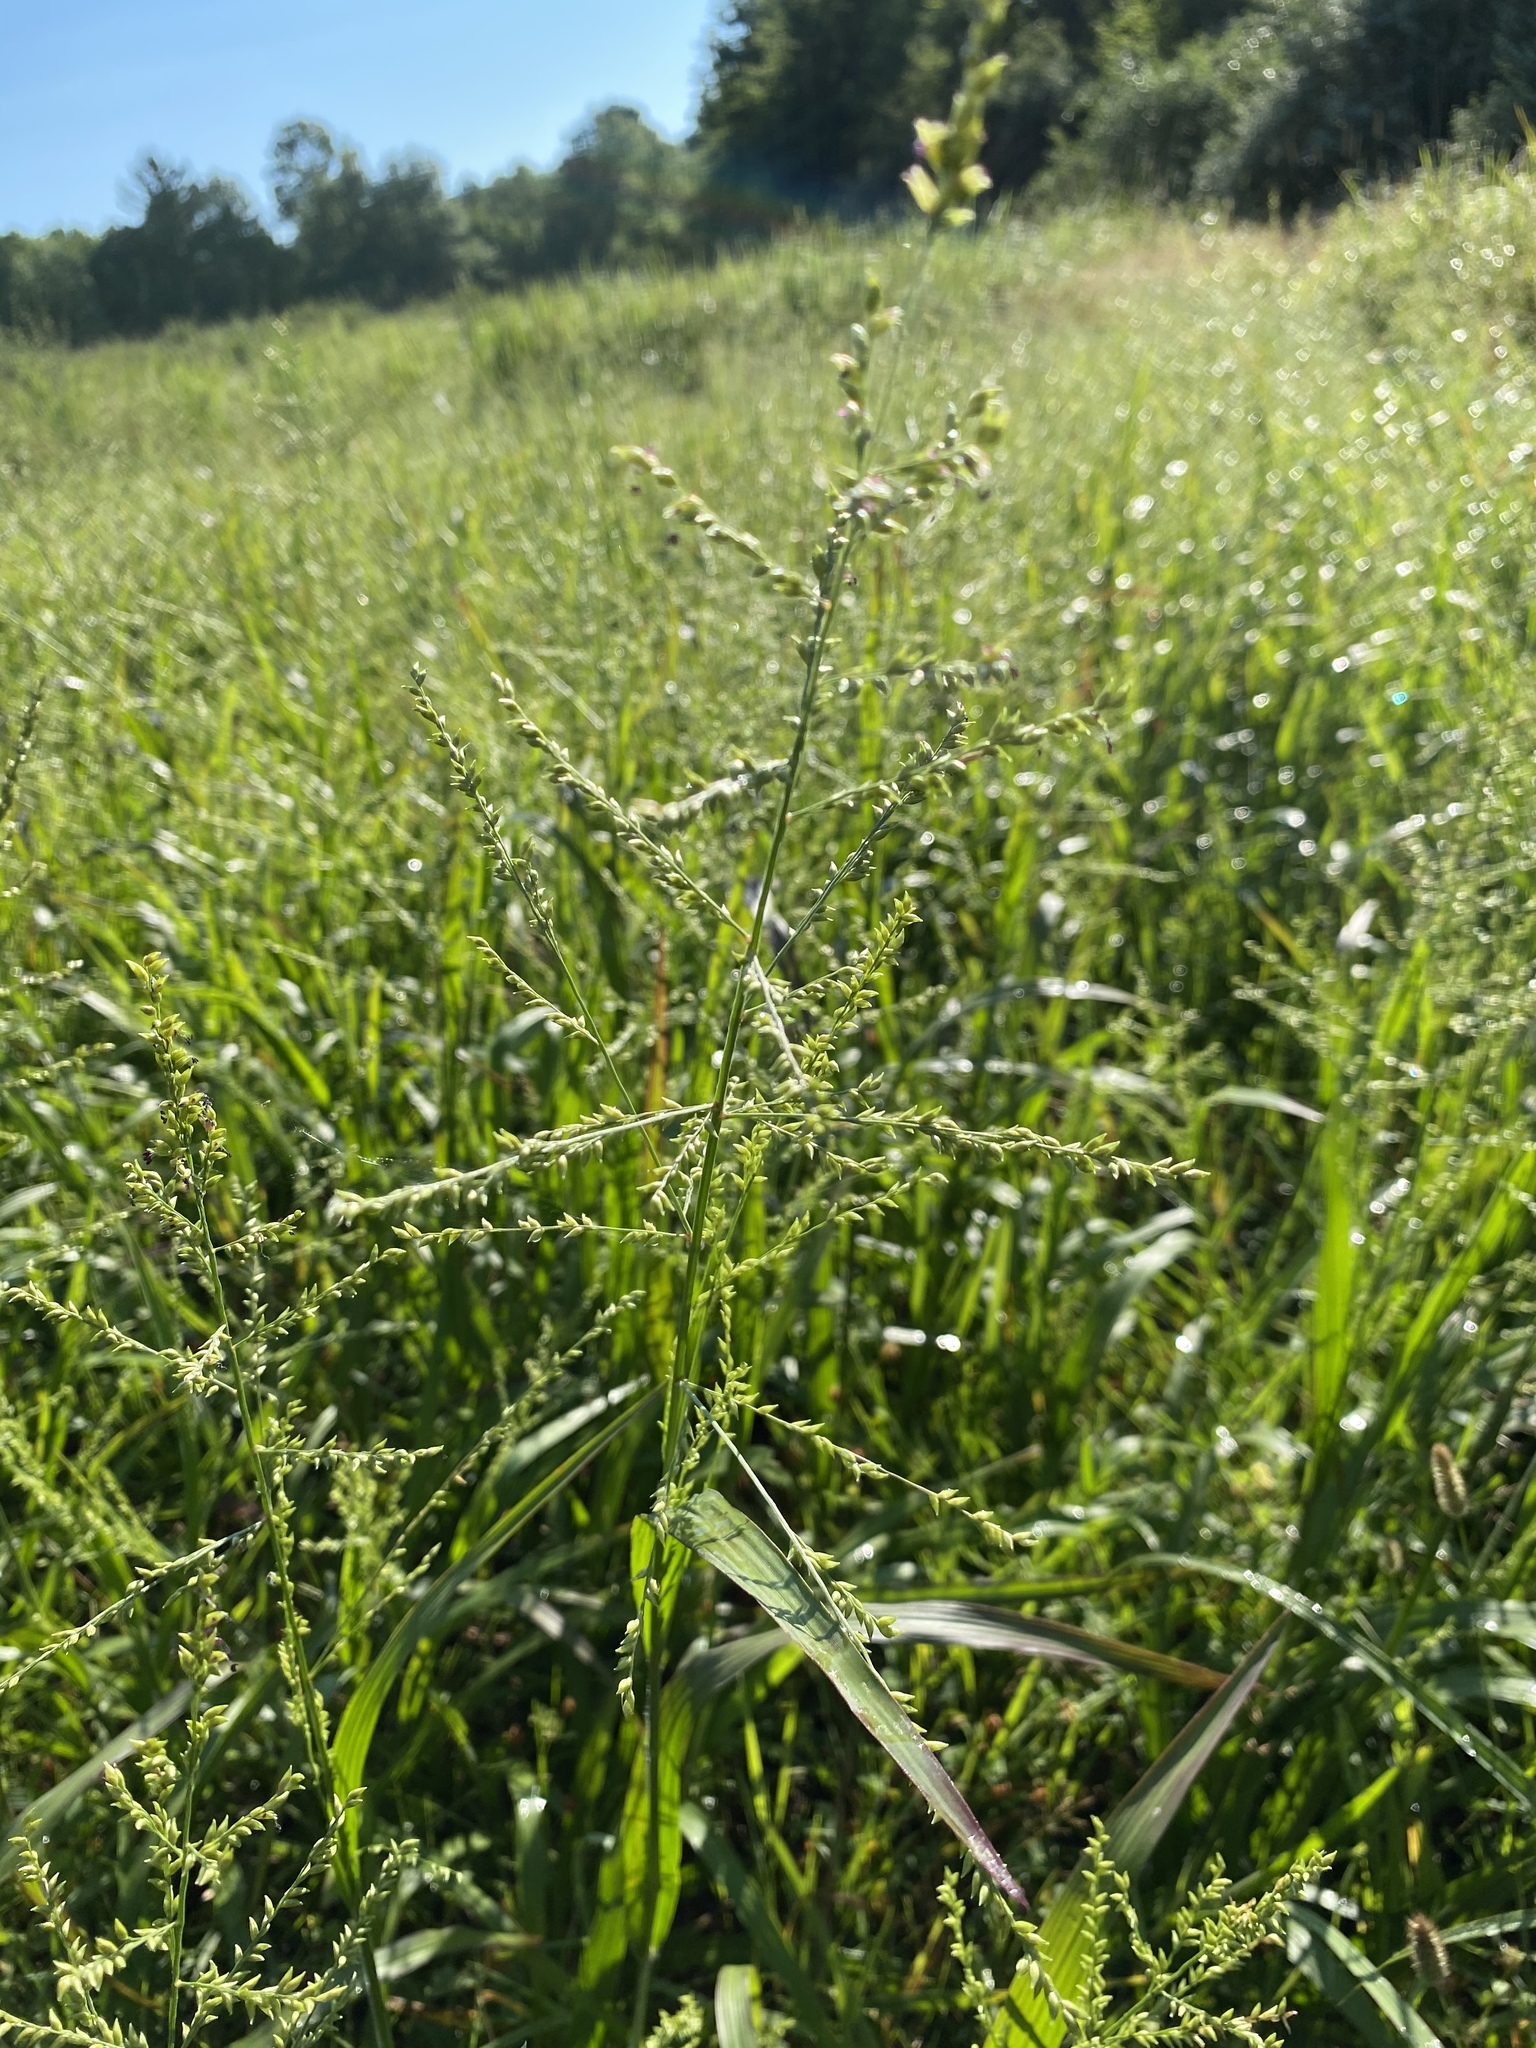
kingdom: Plantae
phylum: Tracheophyta
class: Liliopsida
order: Poales
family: Poaceae
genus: Coleataenia
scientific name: Coleataenia anceps
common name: Beaked panic grass
